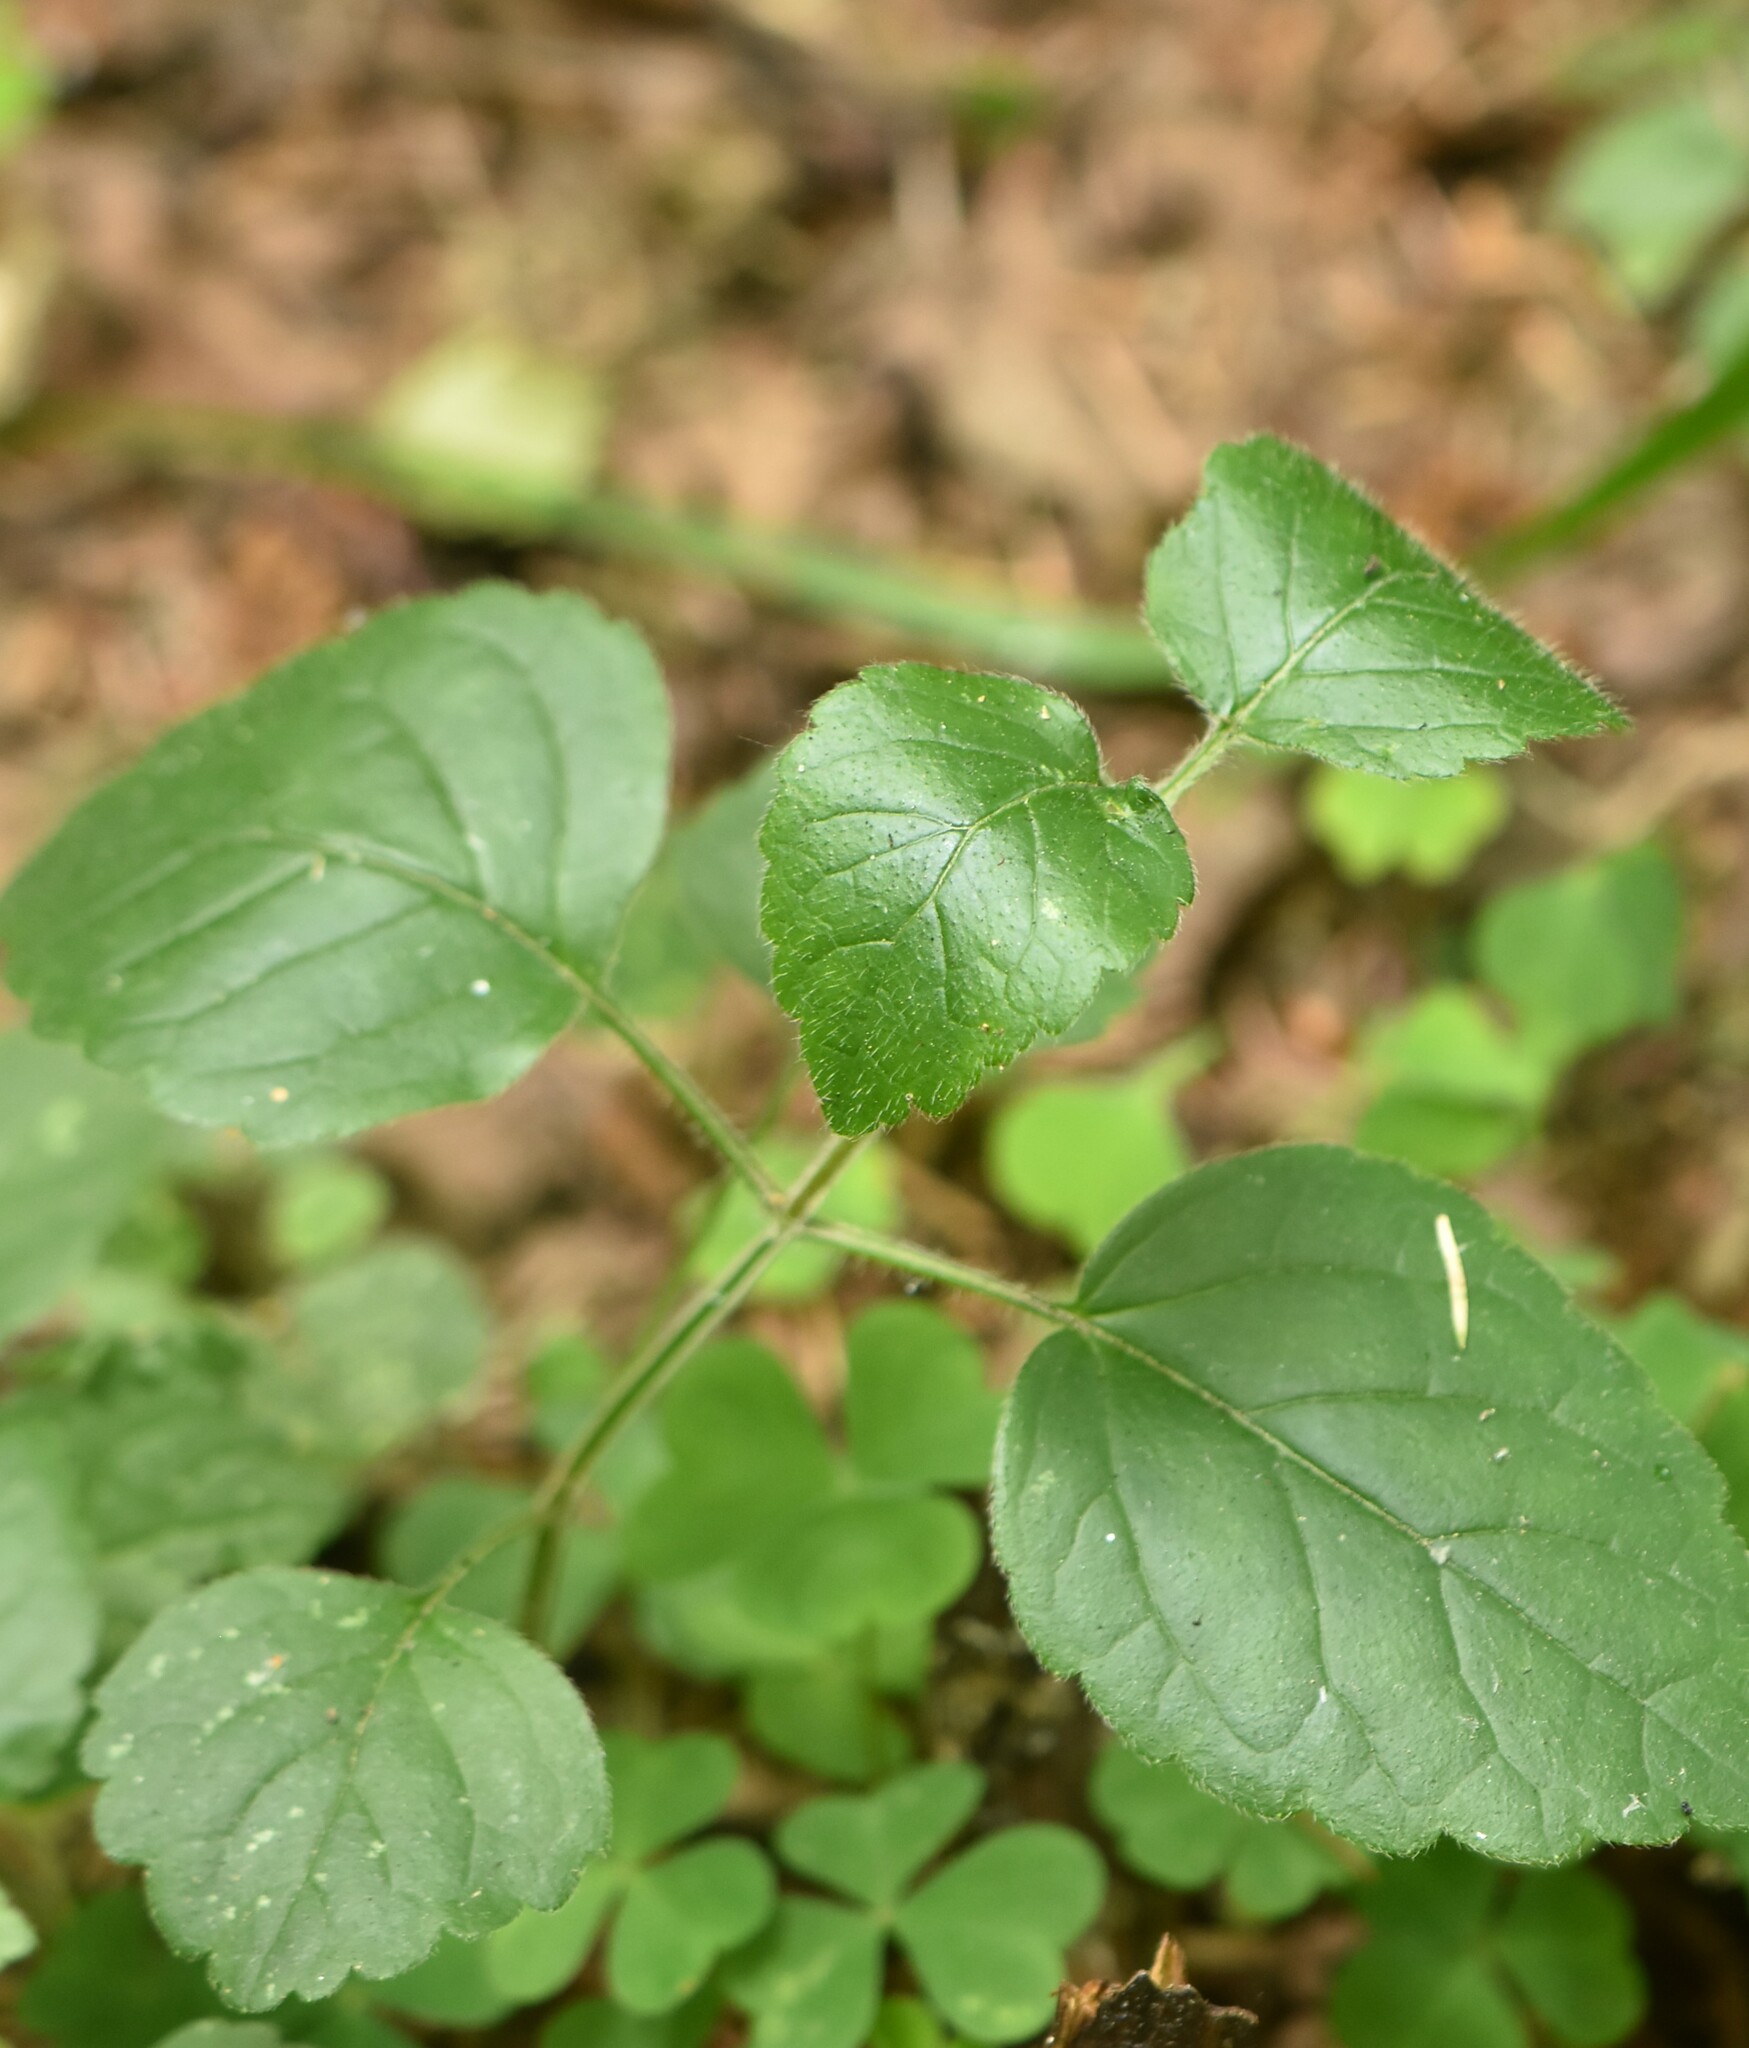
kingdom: Plantae
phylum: Tracheophyta
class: Magnoliopsida
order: Lamiales
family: Lamiaceae
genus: Lamium
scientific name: Lamium galeobdolon
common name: Yellow archangel
